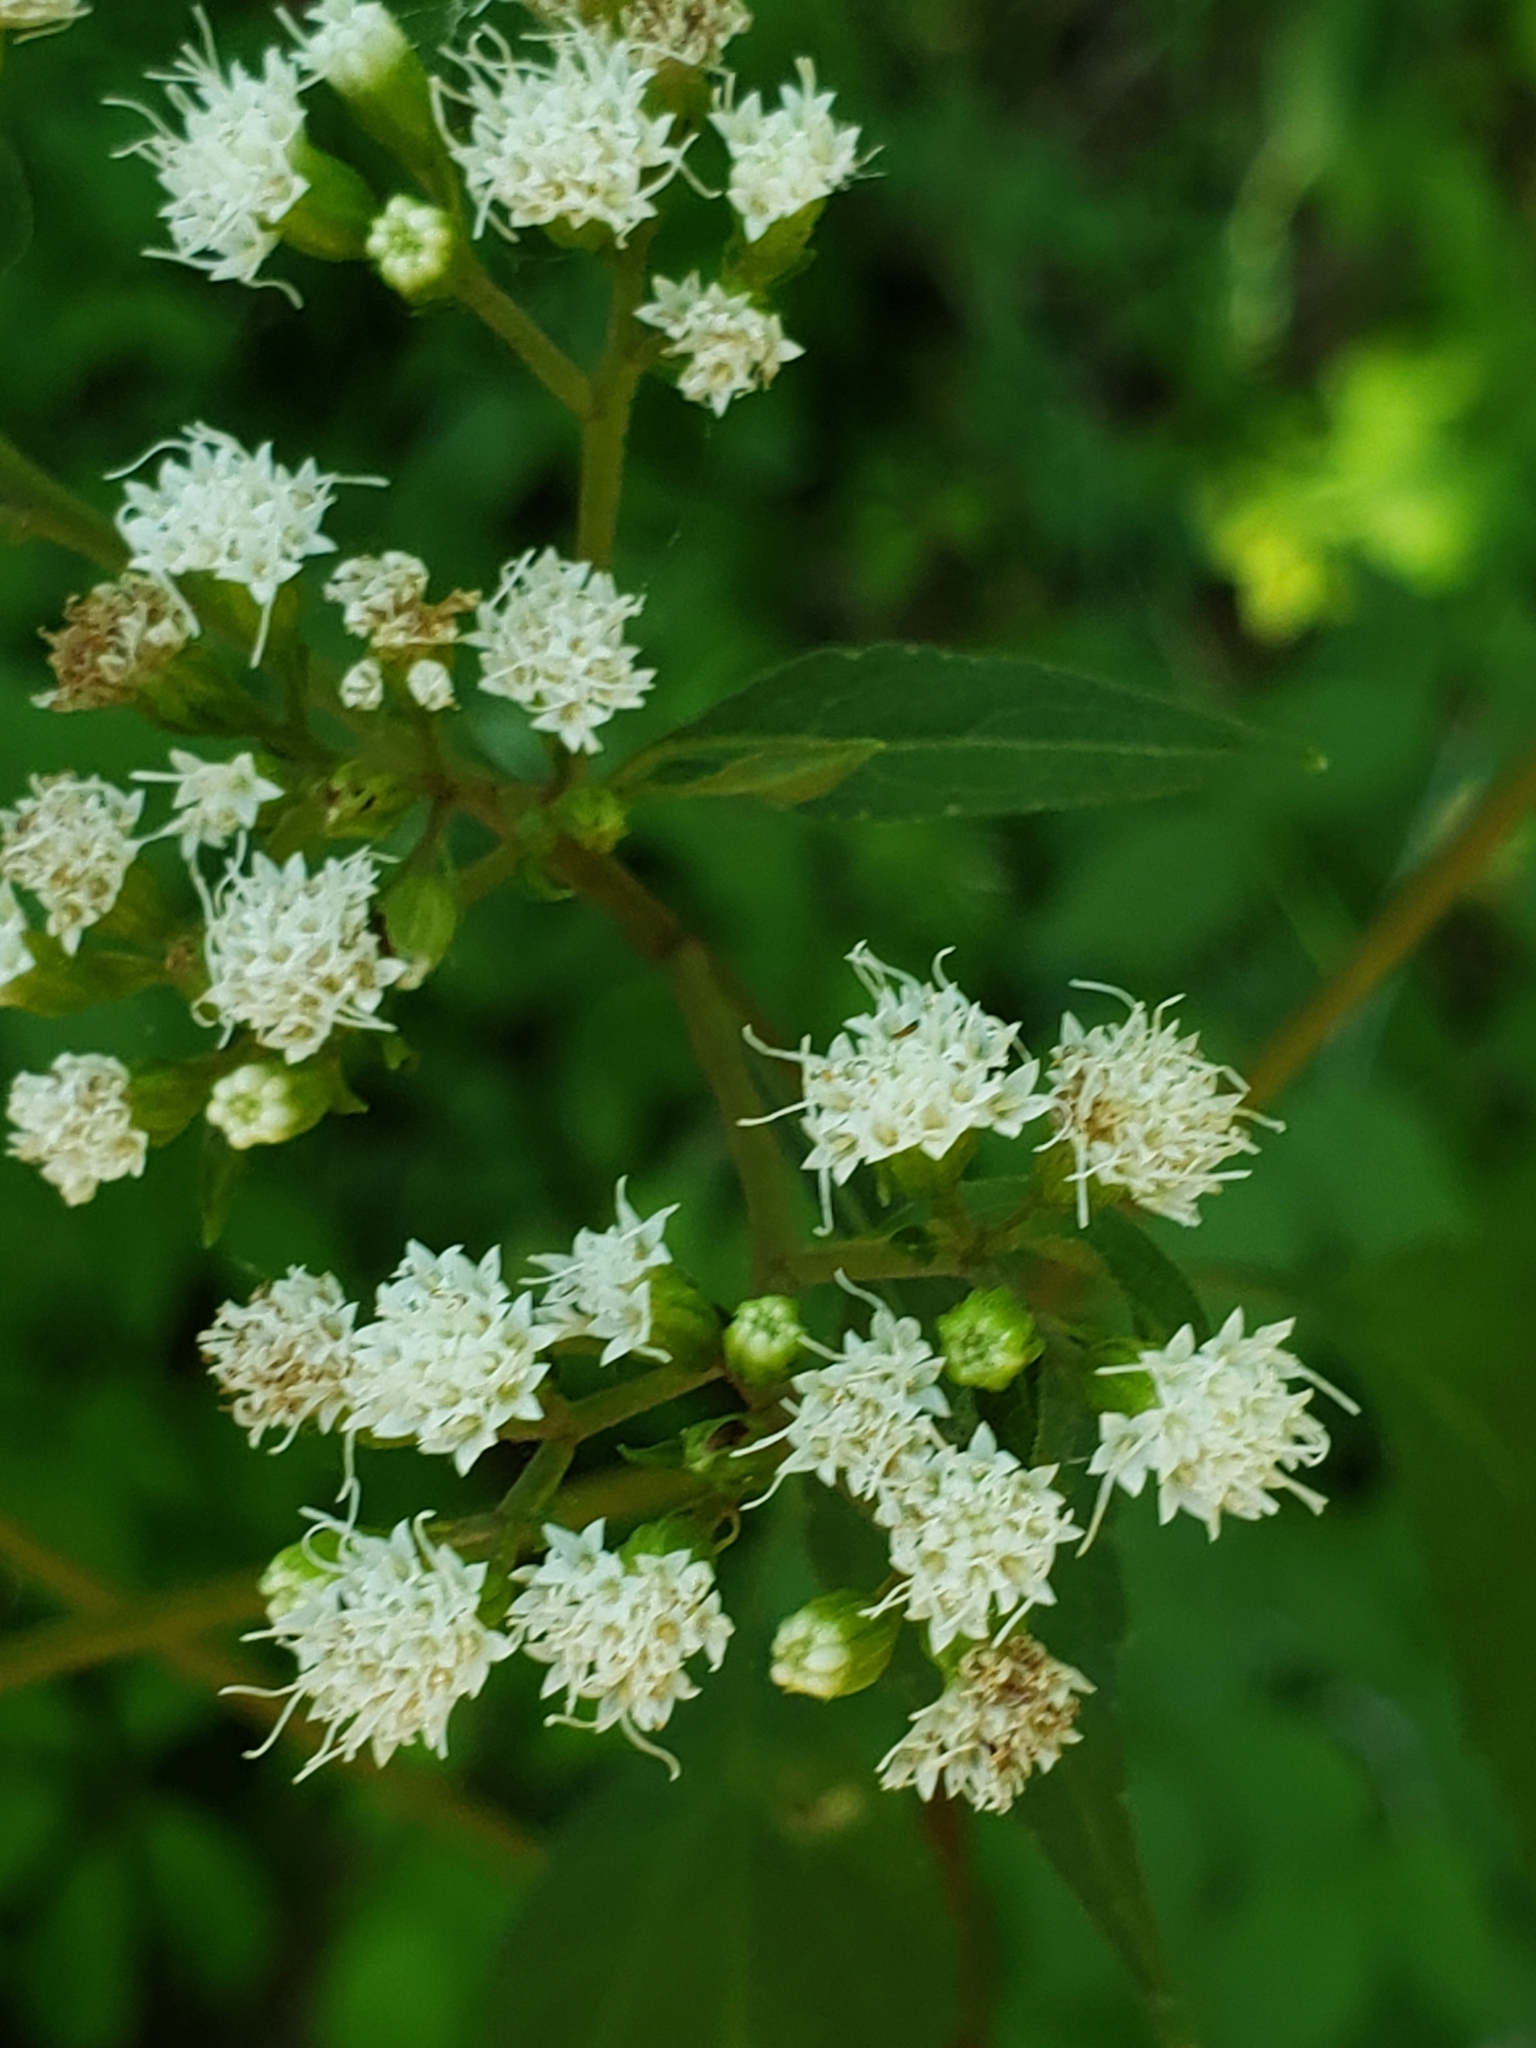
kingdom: Plantae
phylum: Tracheophyta
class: Magnoliopsida
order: Asterales
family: Asteraceae
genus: Ageratina
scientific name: Ageratina altissima
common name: White snakeroot
